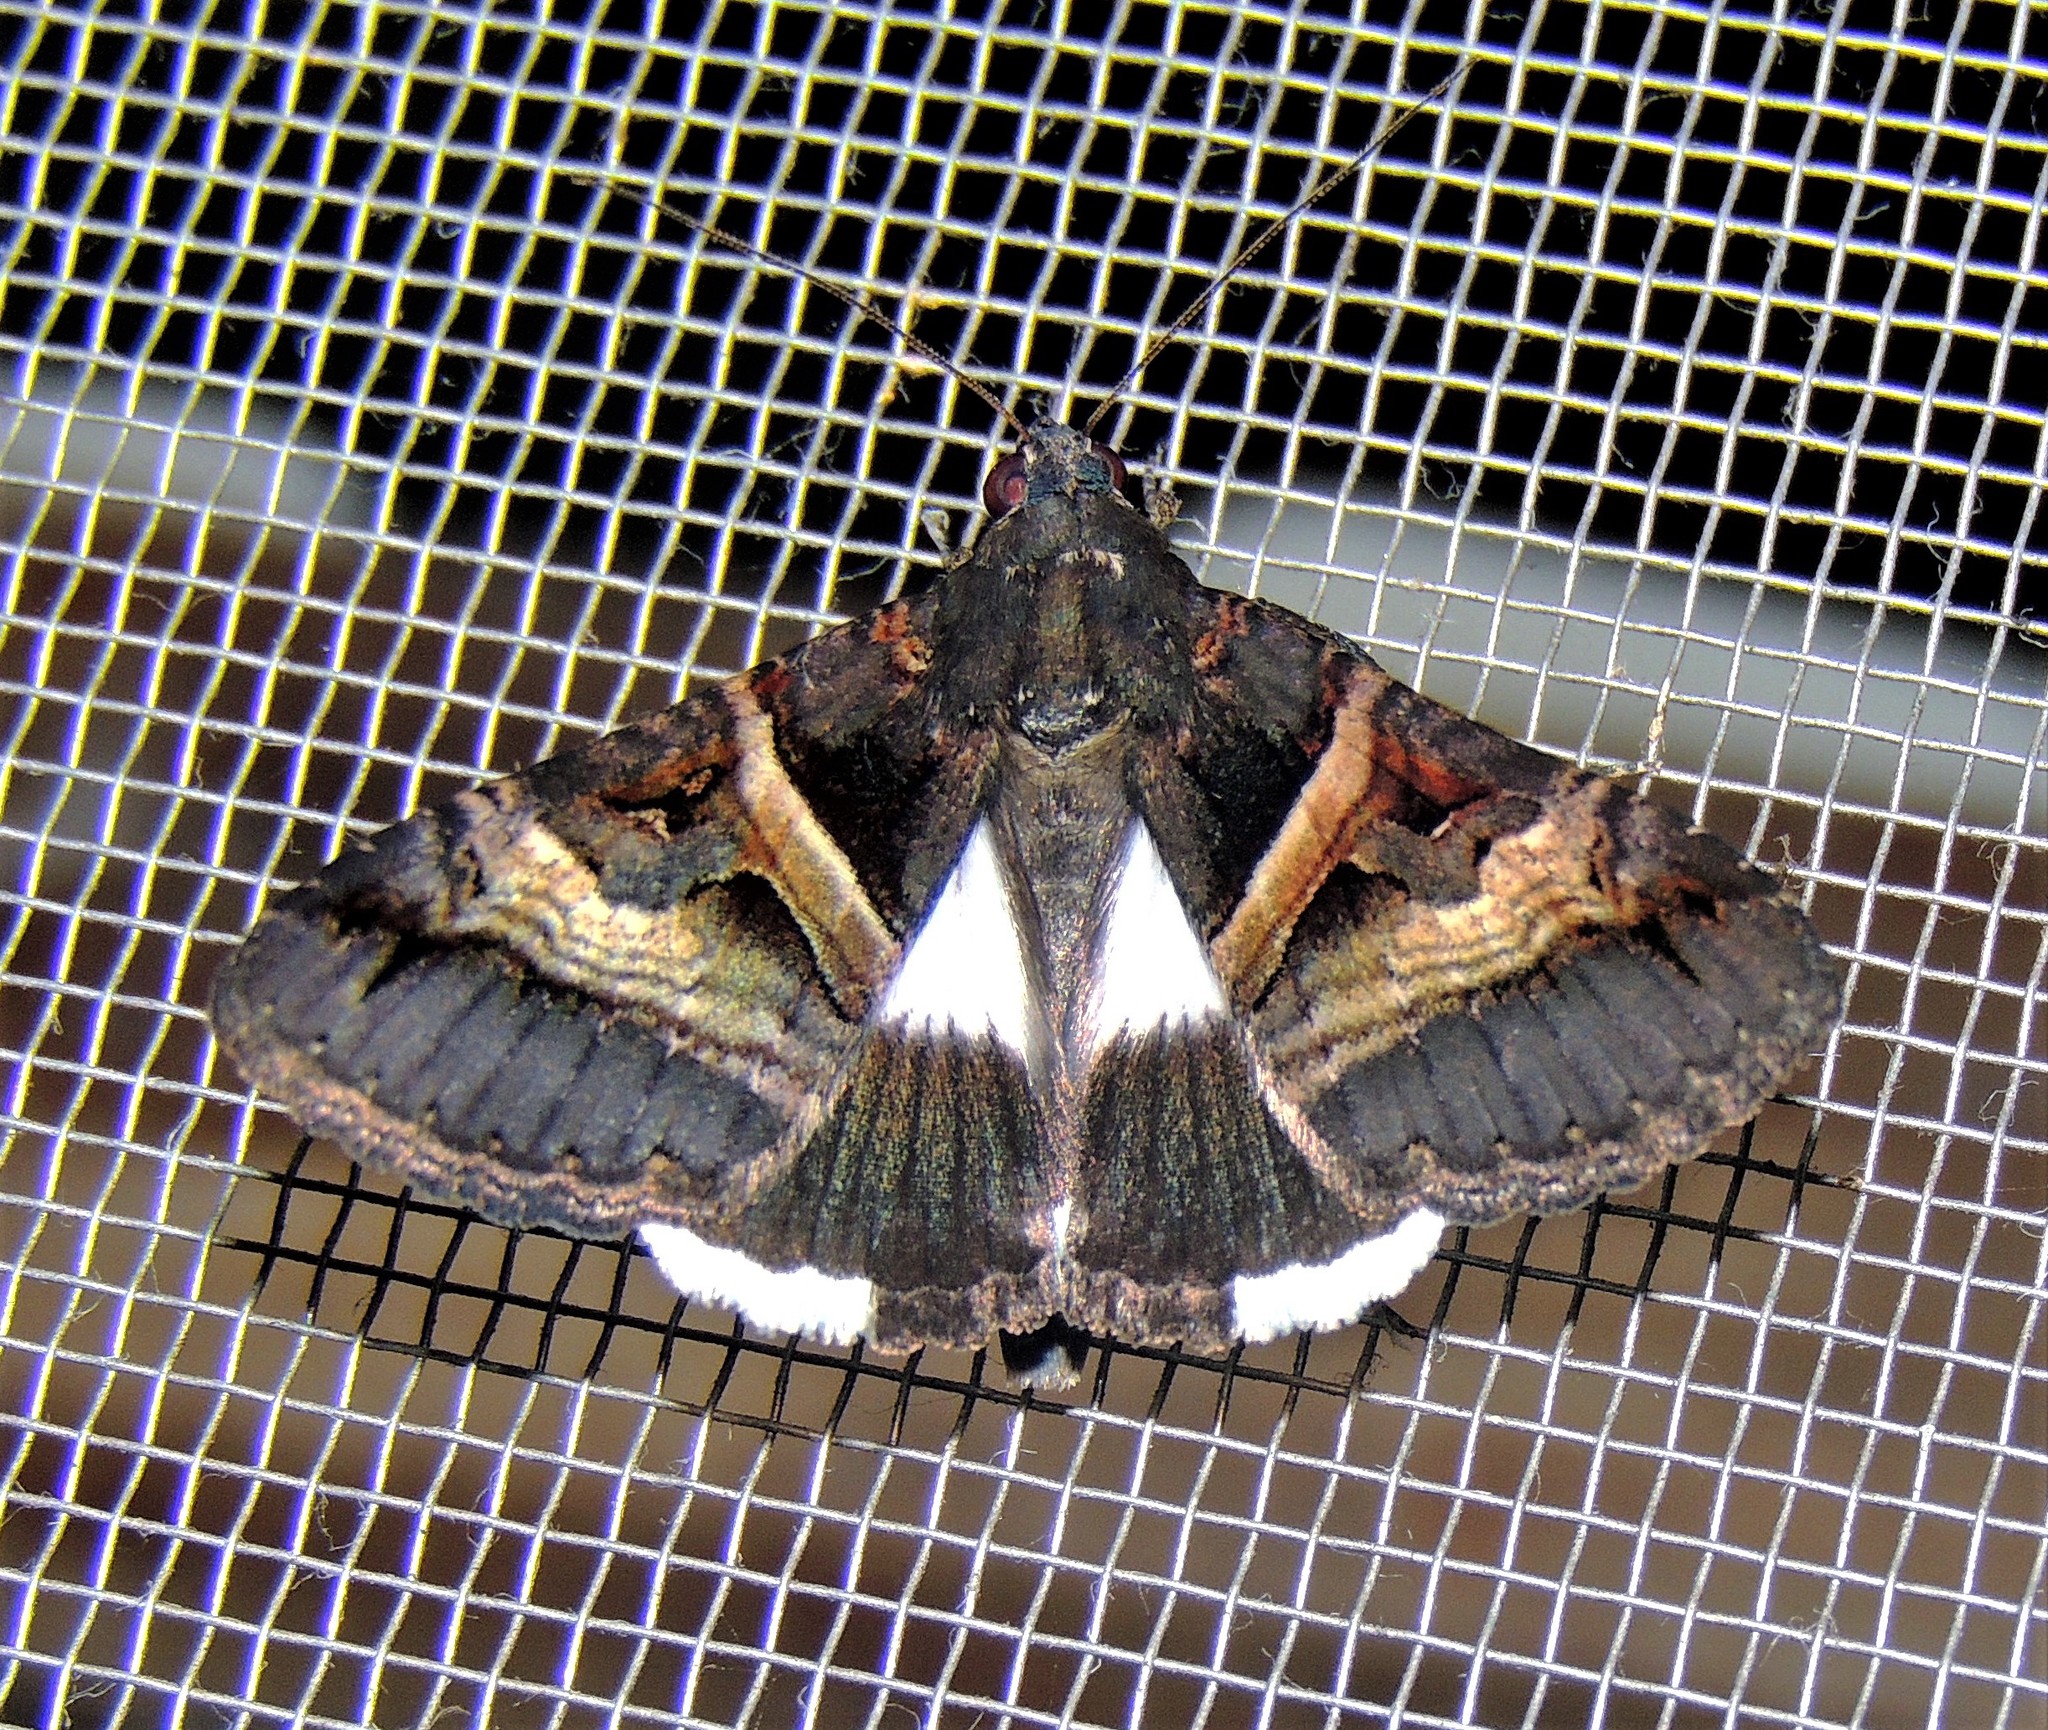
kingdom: Animalia
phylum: Arthropoda
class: Insecta
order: Lepidoptera
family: Erebidae
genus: Melipotis
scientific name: Melipotis nigrobasis
